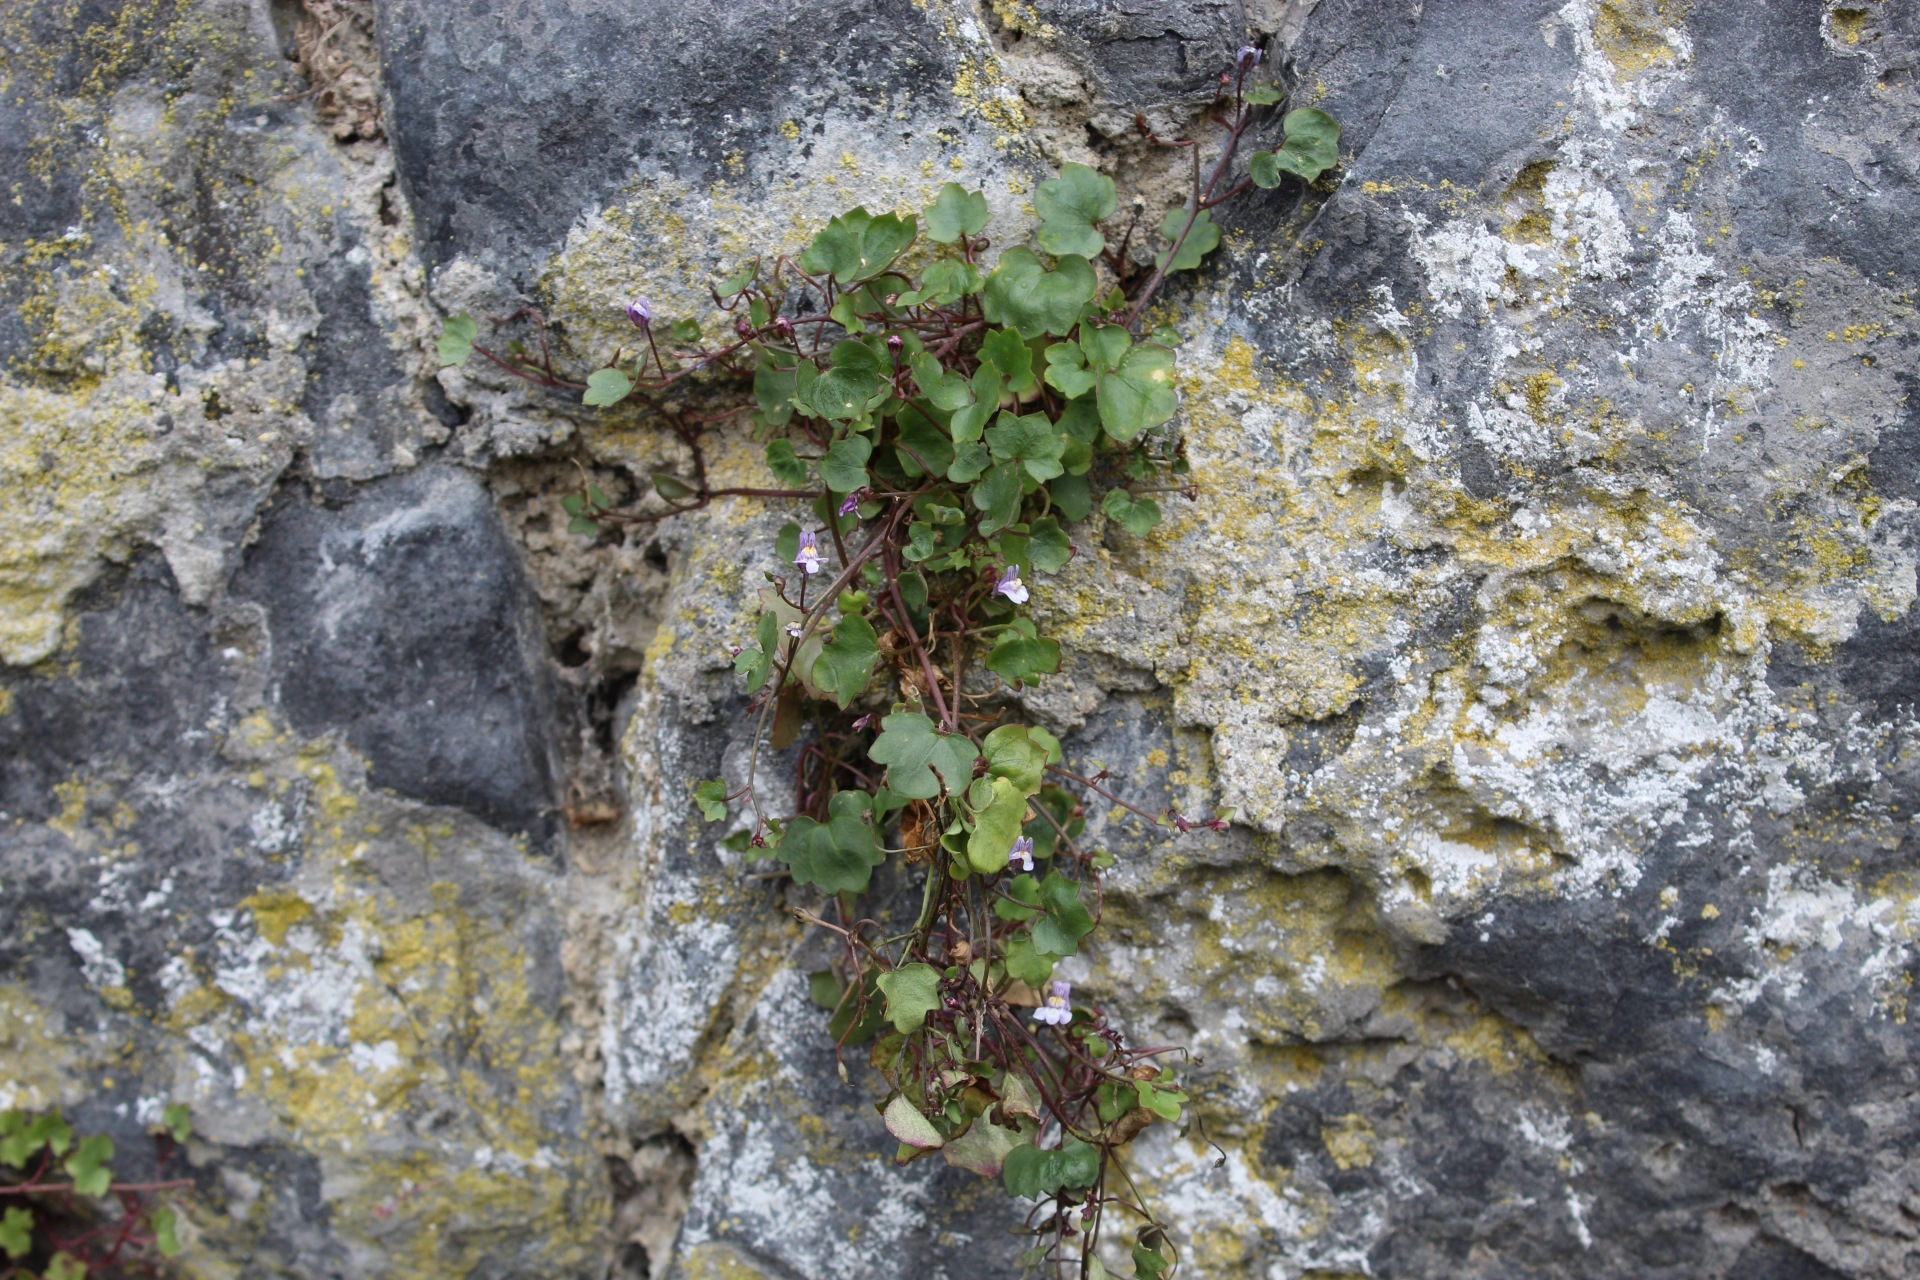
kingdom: Plantae
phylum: Tracheophyta
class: Magnoliopsida
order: Lamiales
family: Plantaginaceae
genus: Cymbalaria
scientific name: Cymbalaria muralis
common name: Ivy-leaved toadflax
